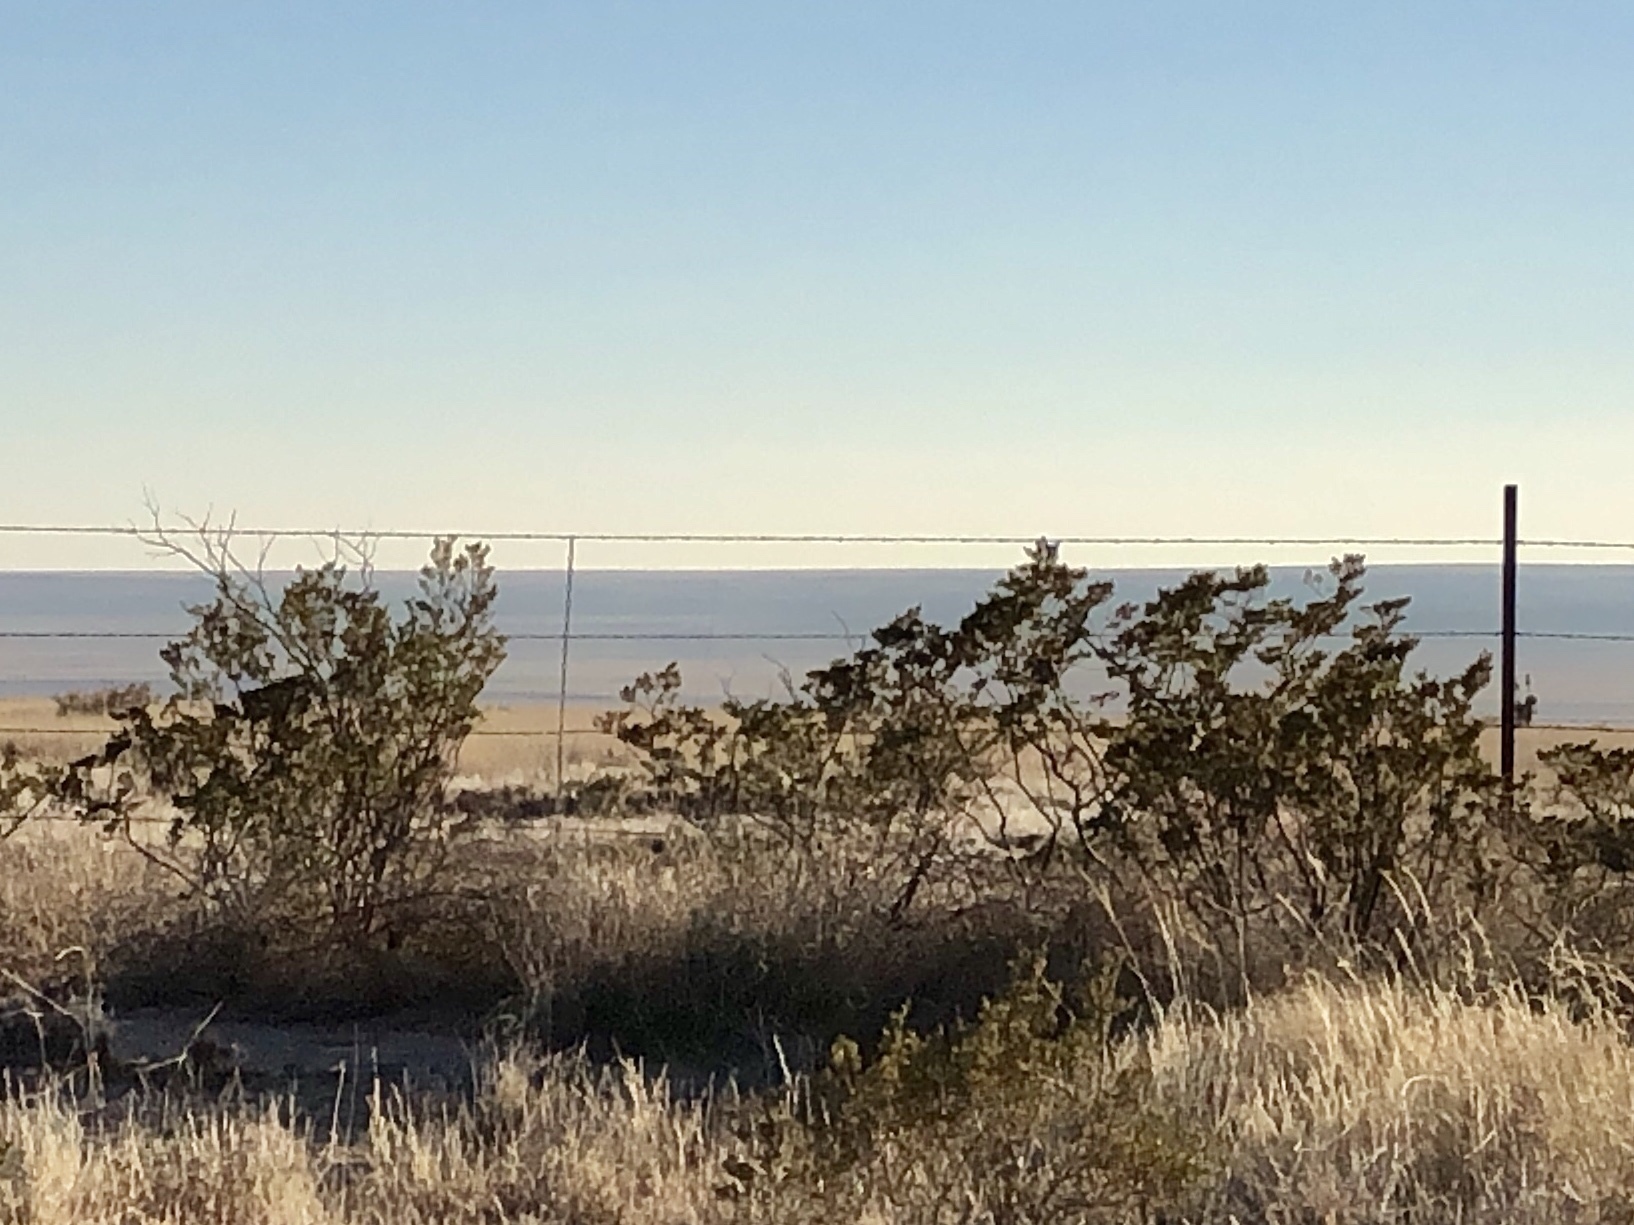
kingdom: Plantae
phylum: Tracheophyta
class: Magnoliopsida
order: Zygophyllales
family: Zygophyllaceae
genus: Larrea
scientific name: Larrea tridentata
